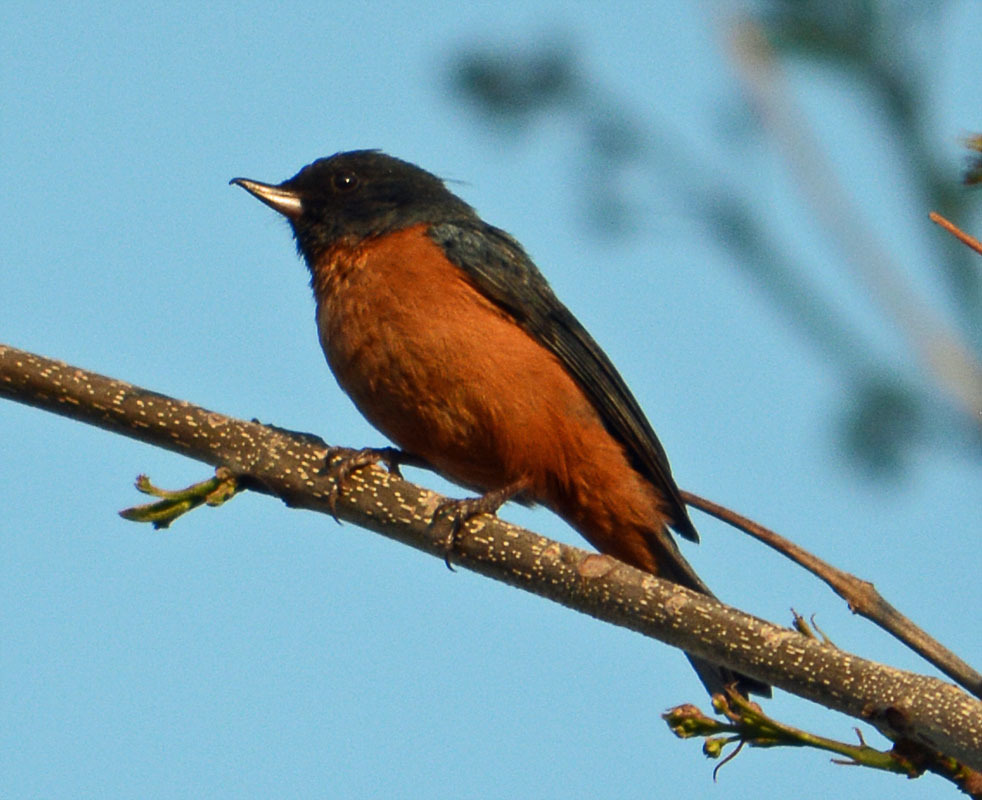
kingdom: Animalia
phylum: Chordata
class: Aves
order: Passeriformes
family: Thraupidae
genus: Diglossa
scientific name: Diglossa baritula
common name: Cinnamon-bellied flowerpiercer
